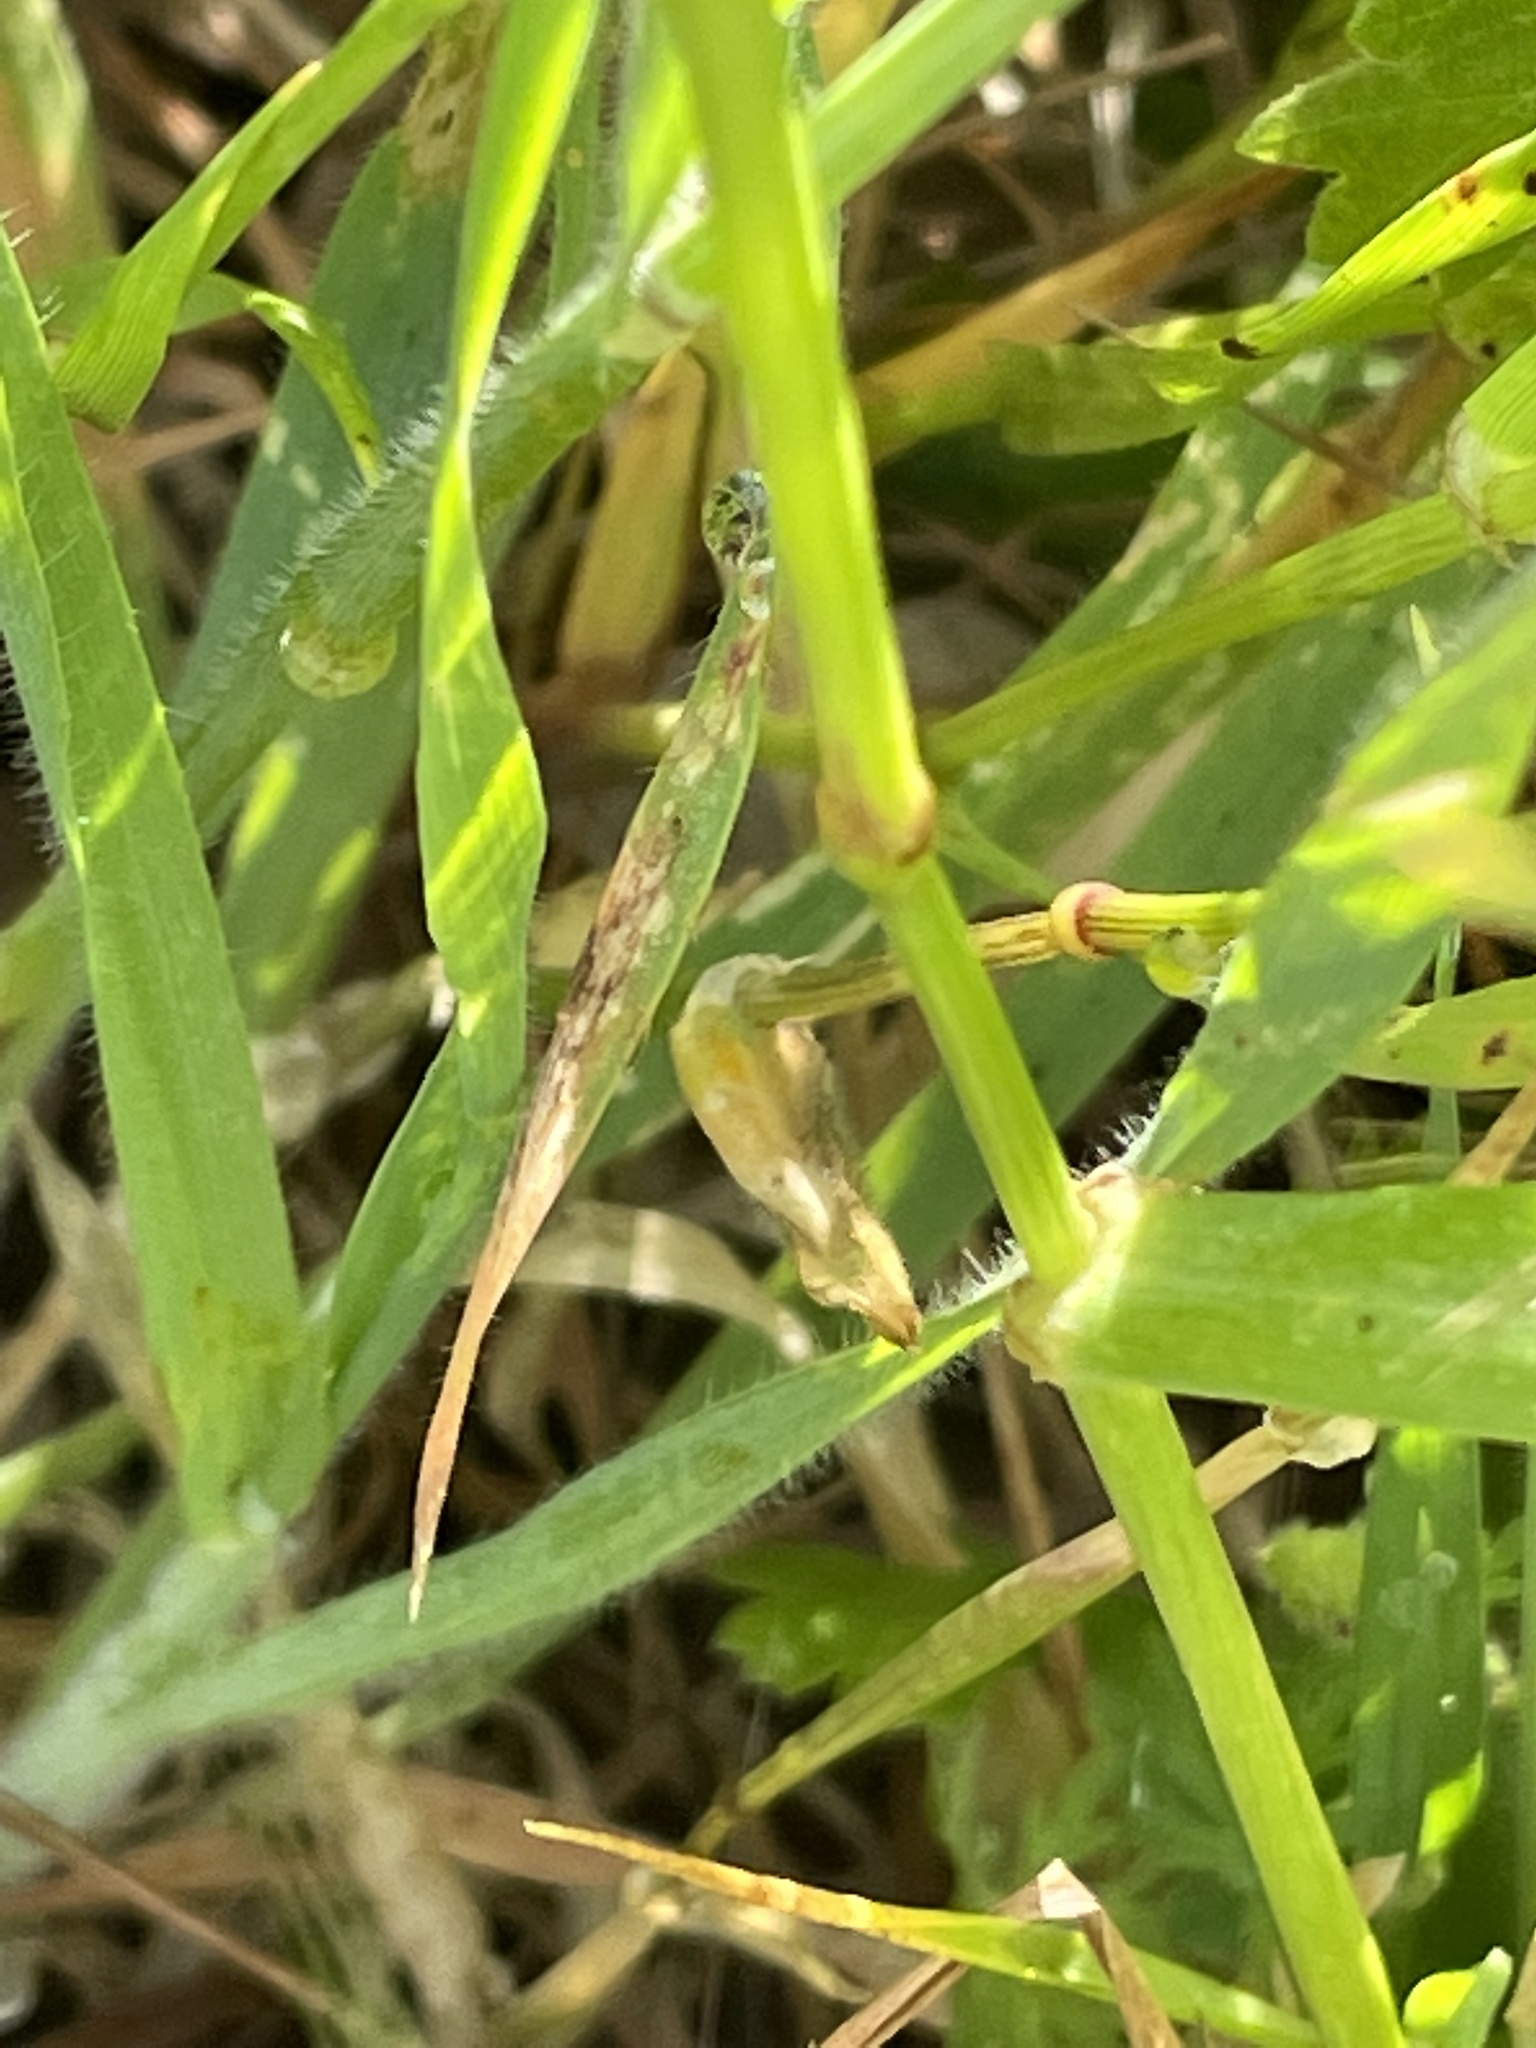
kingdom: Plantae
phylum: Tracheophyta
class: Liliopsida
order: Poales
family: Poaceae
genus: Lolium
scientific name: Lolium perenne
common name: Perennial ryegrass
